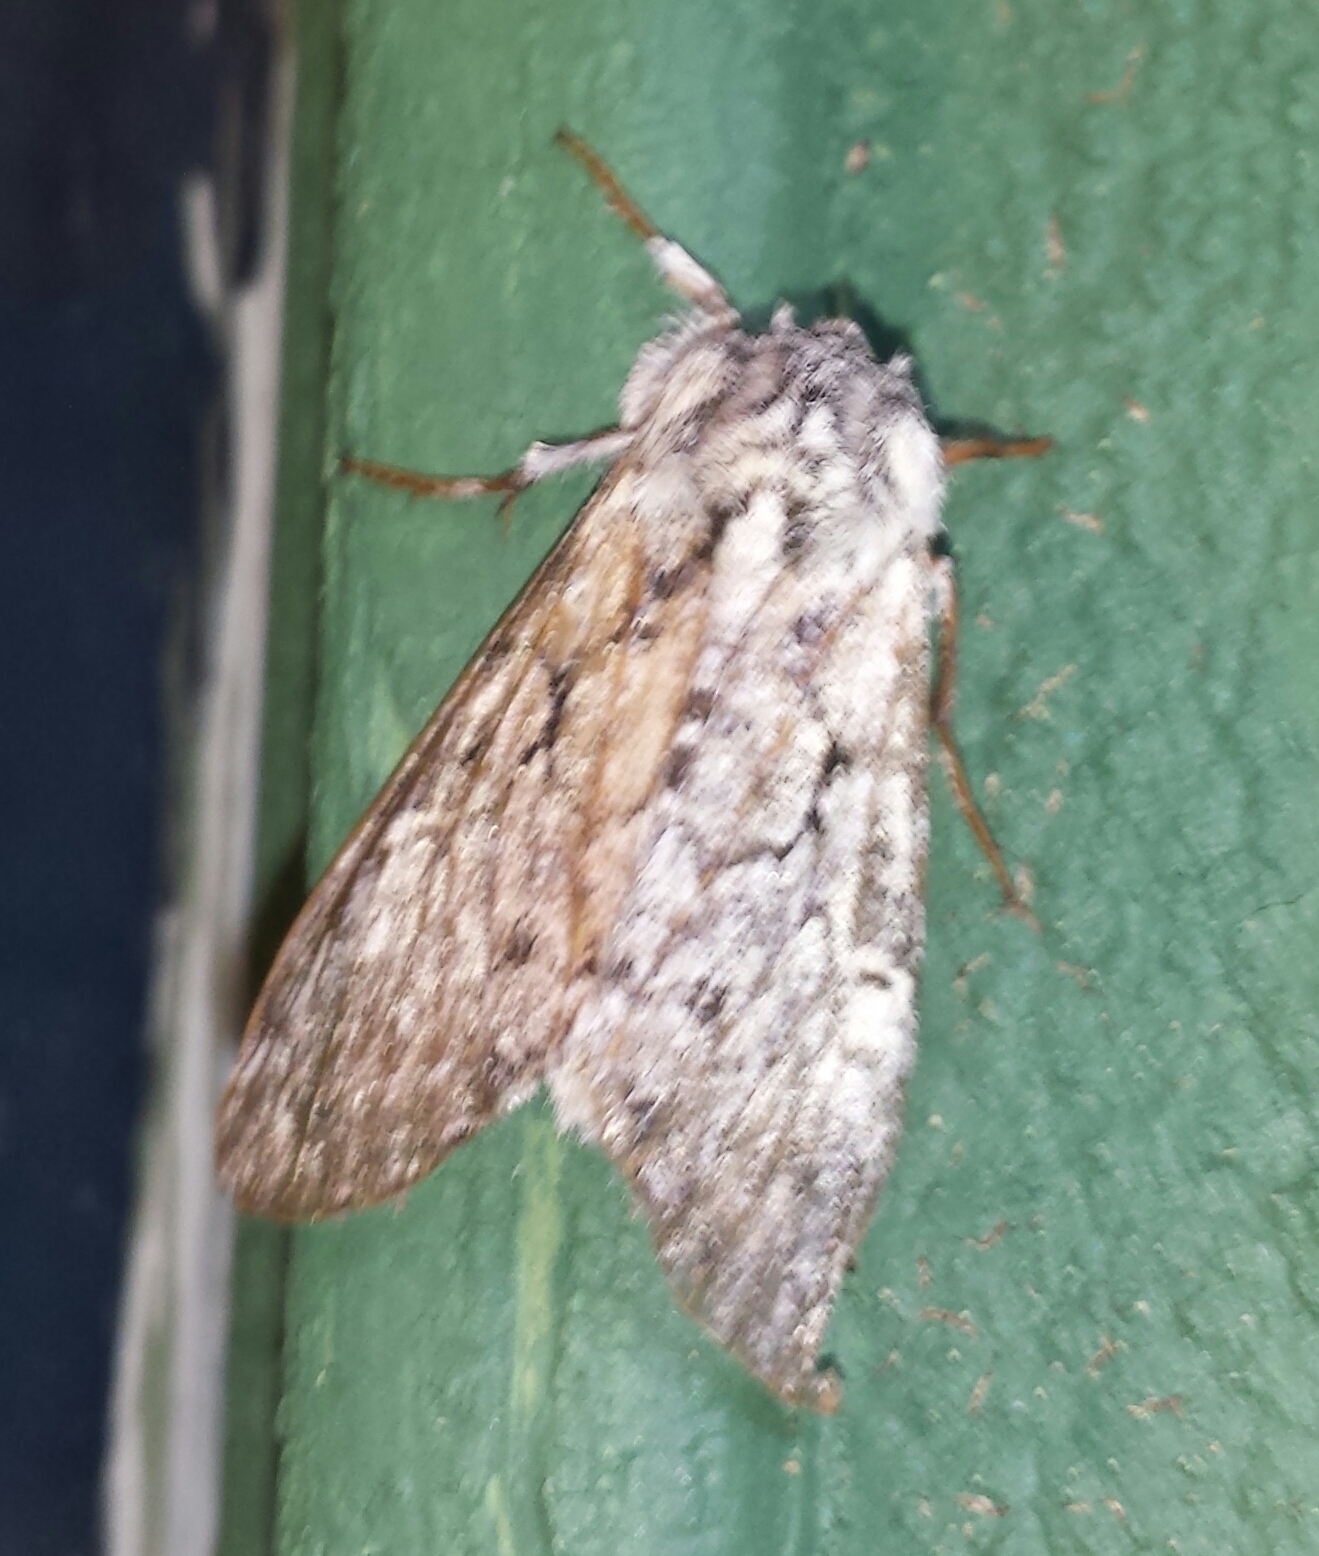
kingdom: Animalia
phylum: Arthropoda
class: Insecta
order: Lepidoptera
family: Noctuidae
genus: Charadra
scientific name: Charadra deridens
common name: Marbled tuffet
